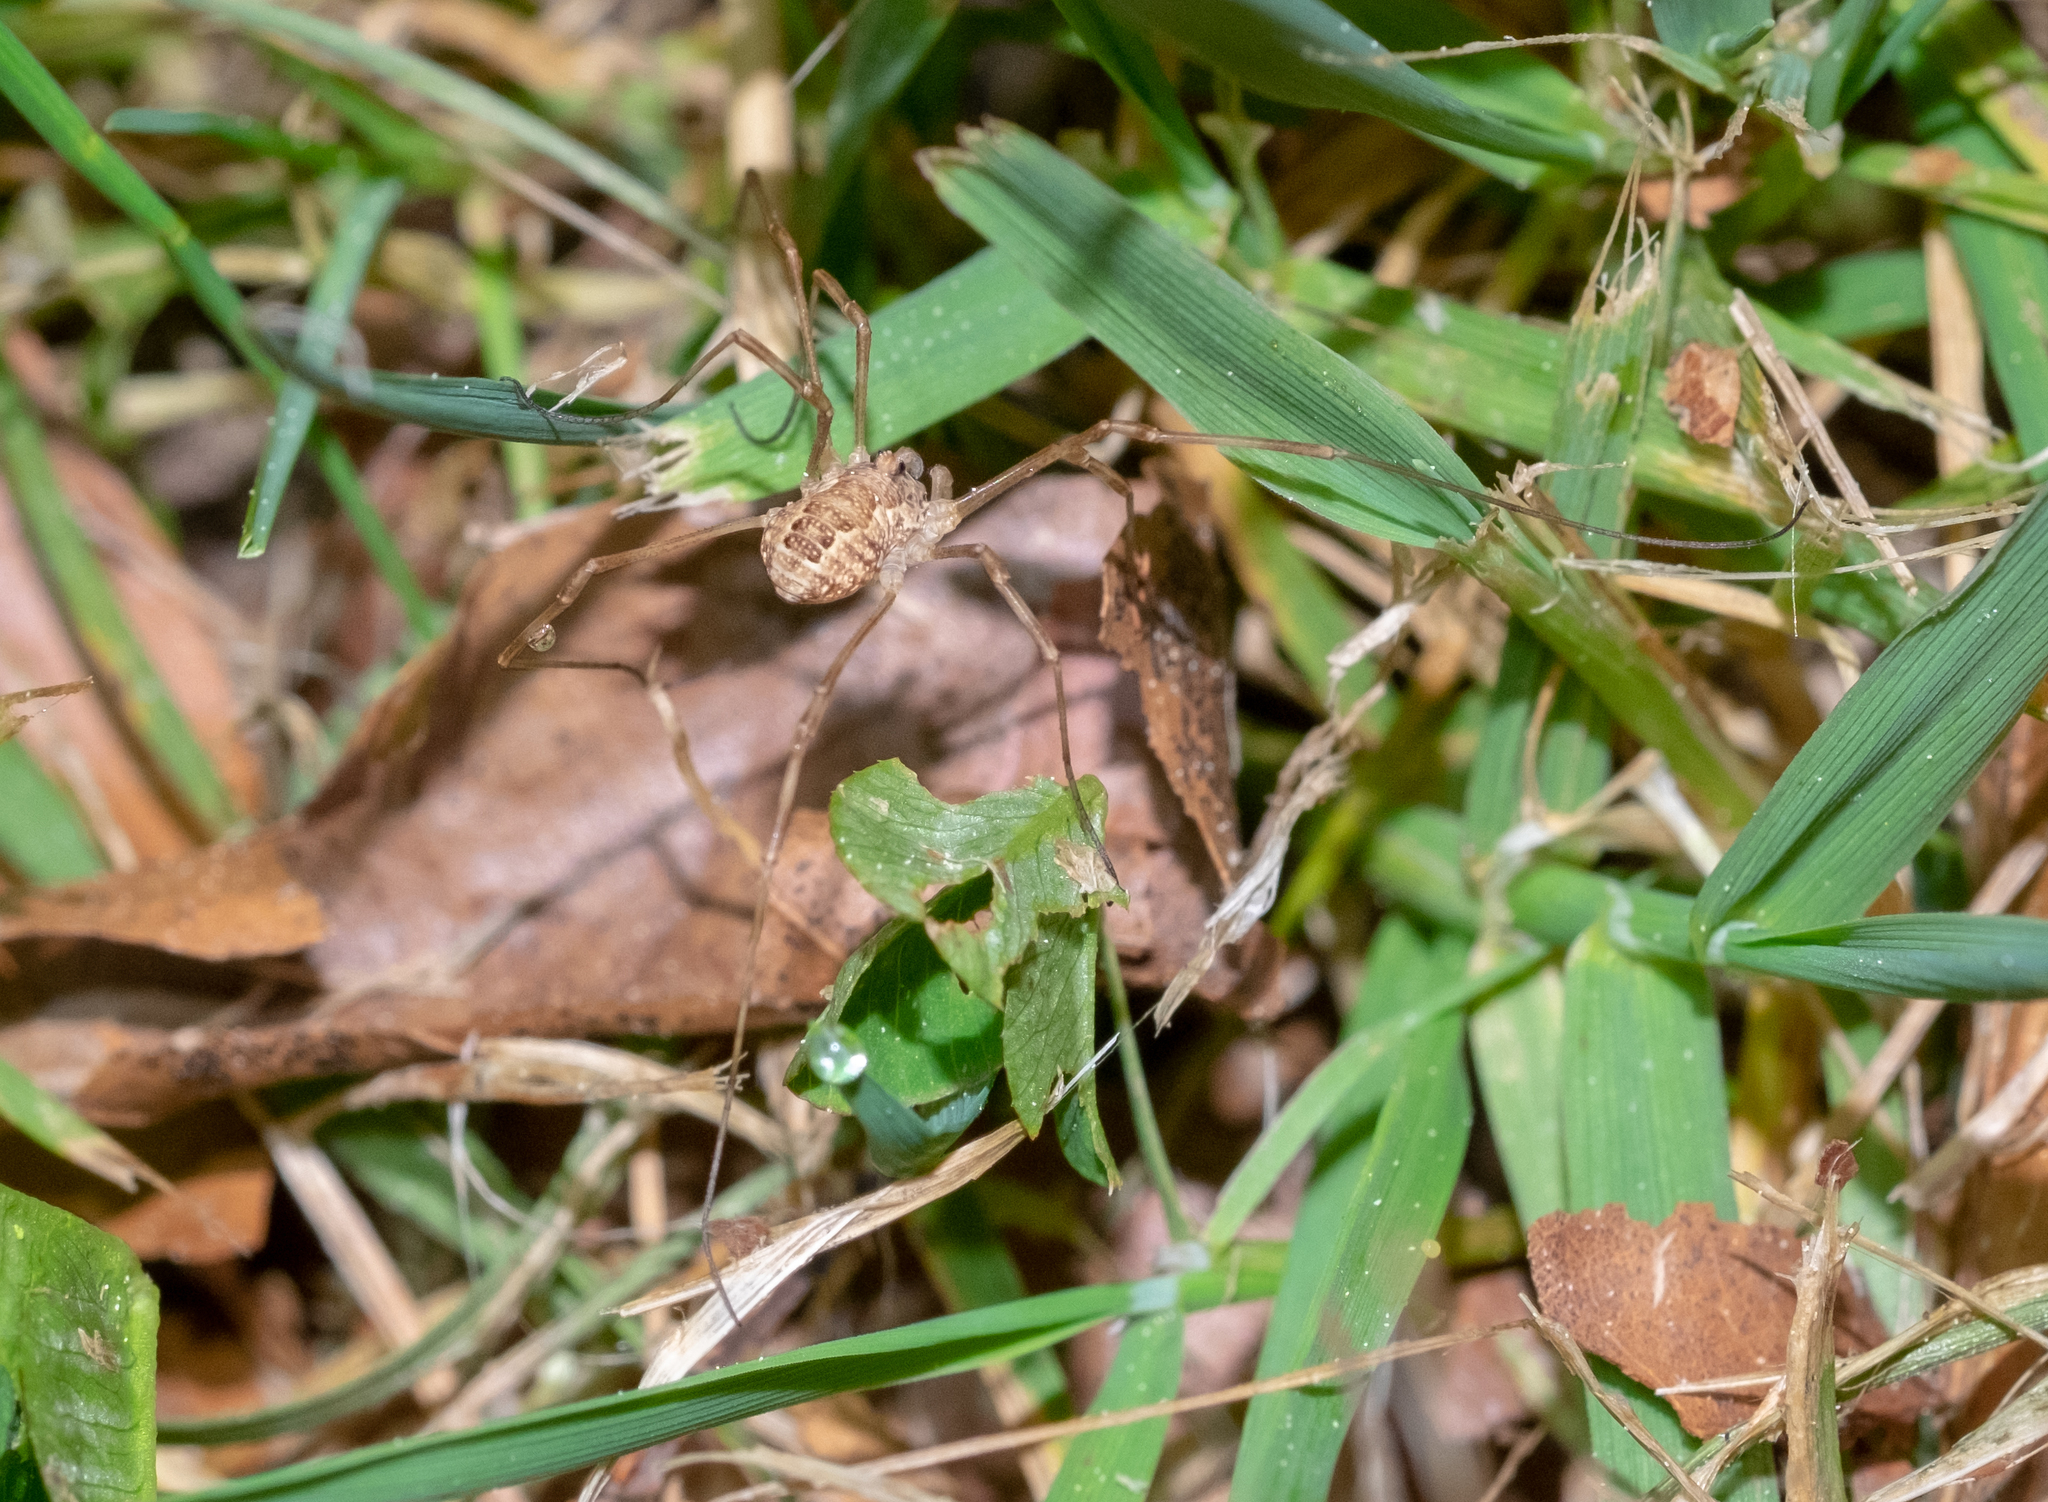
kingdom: Animalia
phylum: Arthropoda
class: Arachnida
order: Opiliones
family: Phalangiidae
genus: Rilaena
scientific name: Rilaena triangularis
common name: Spring harvestman
